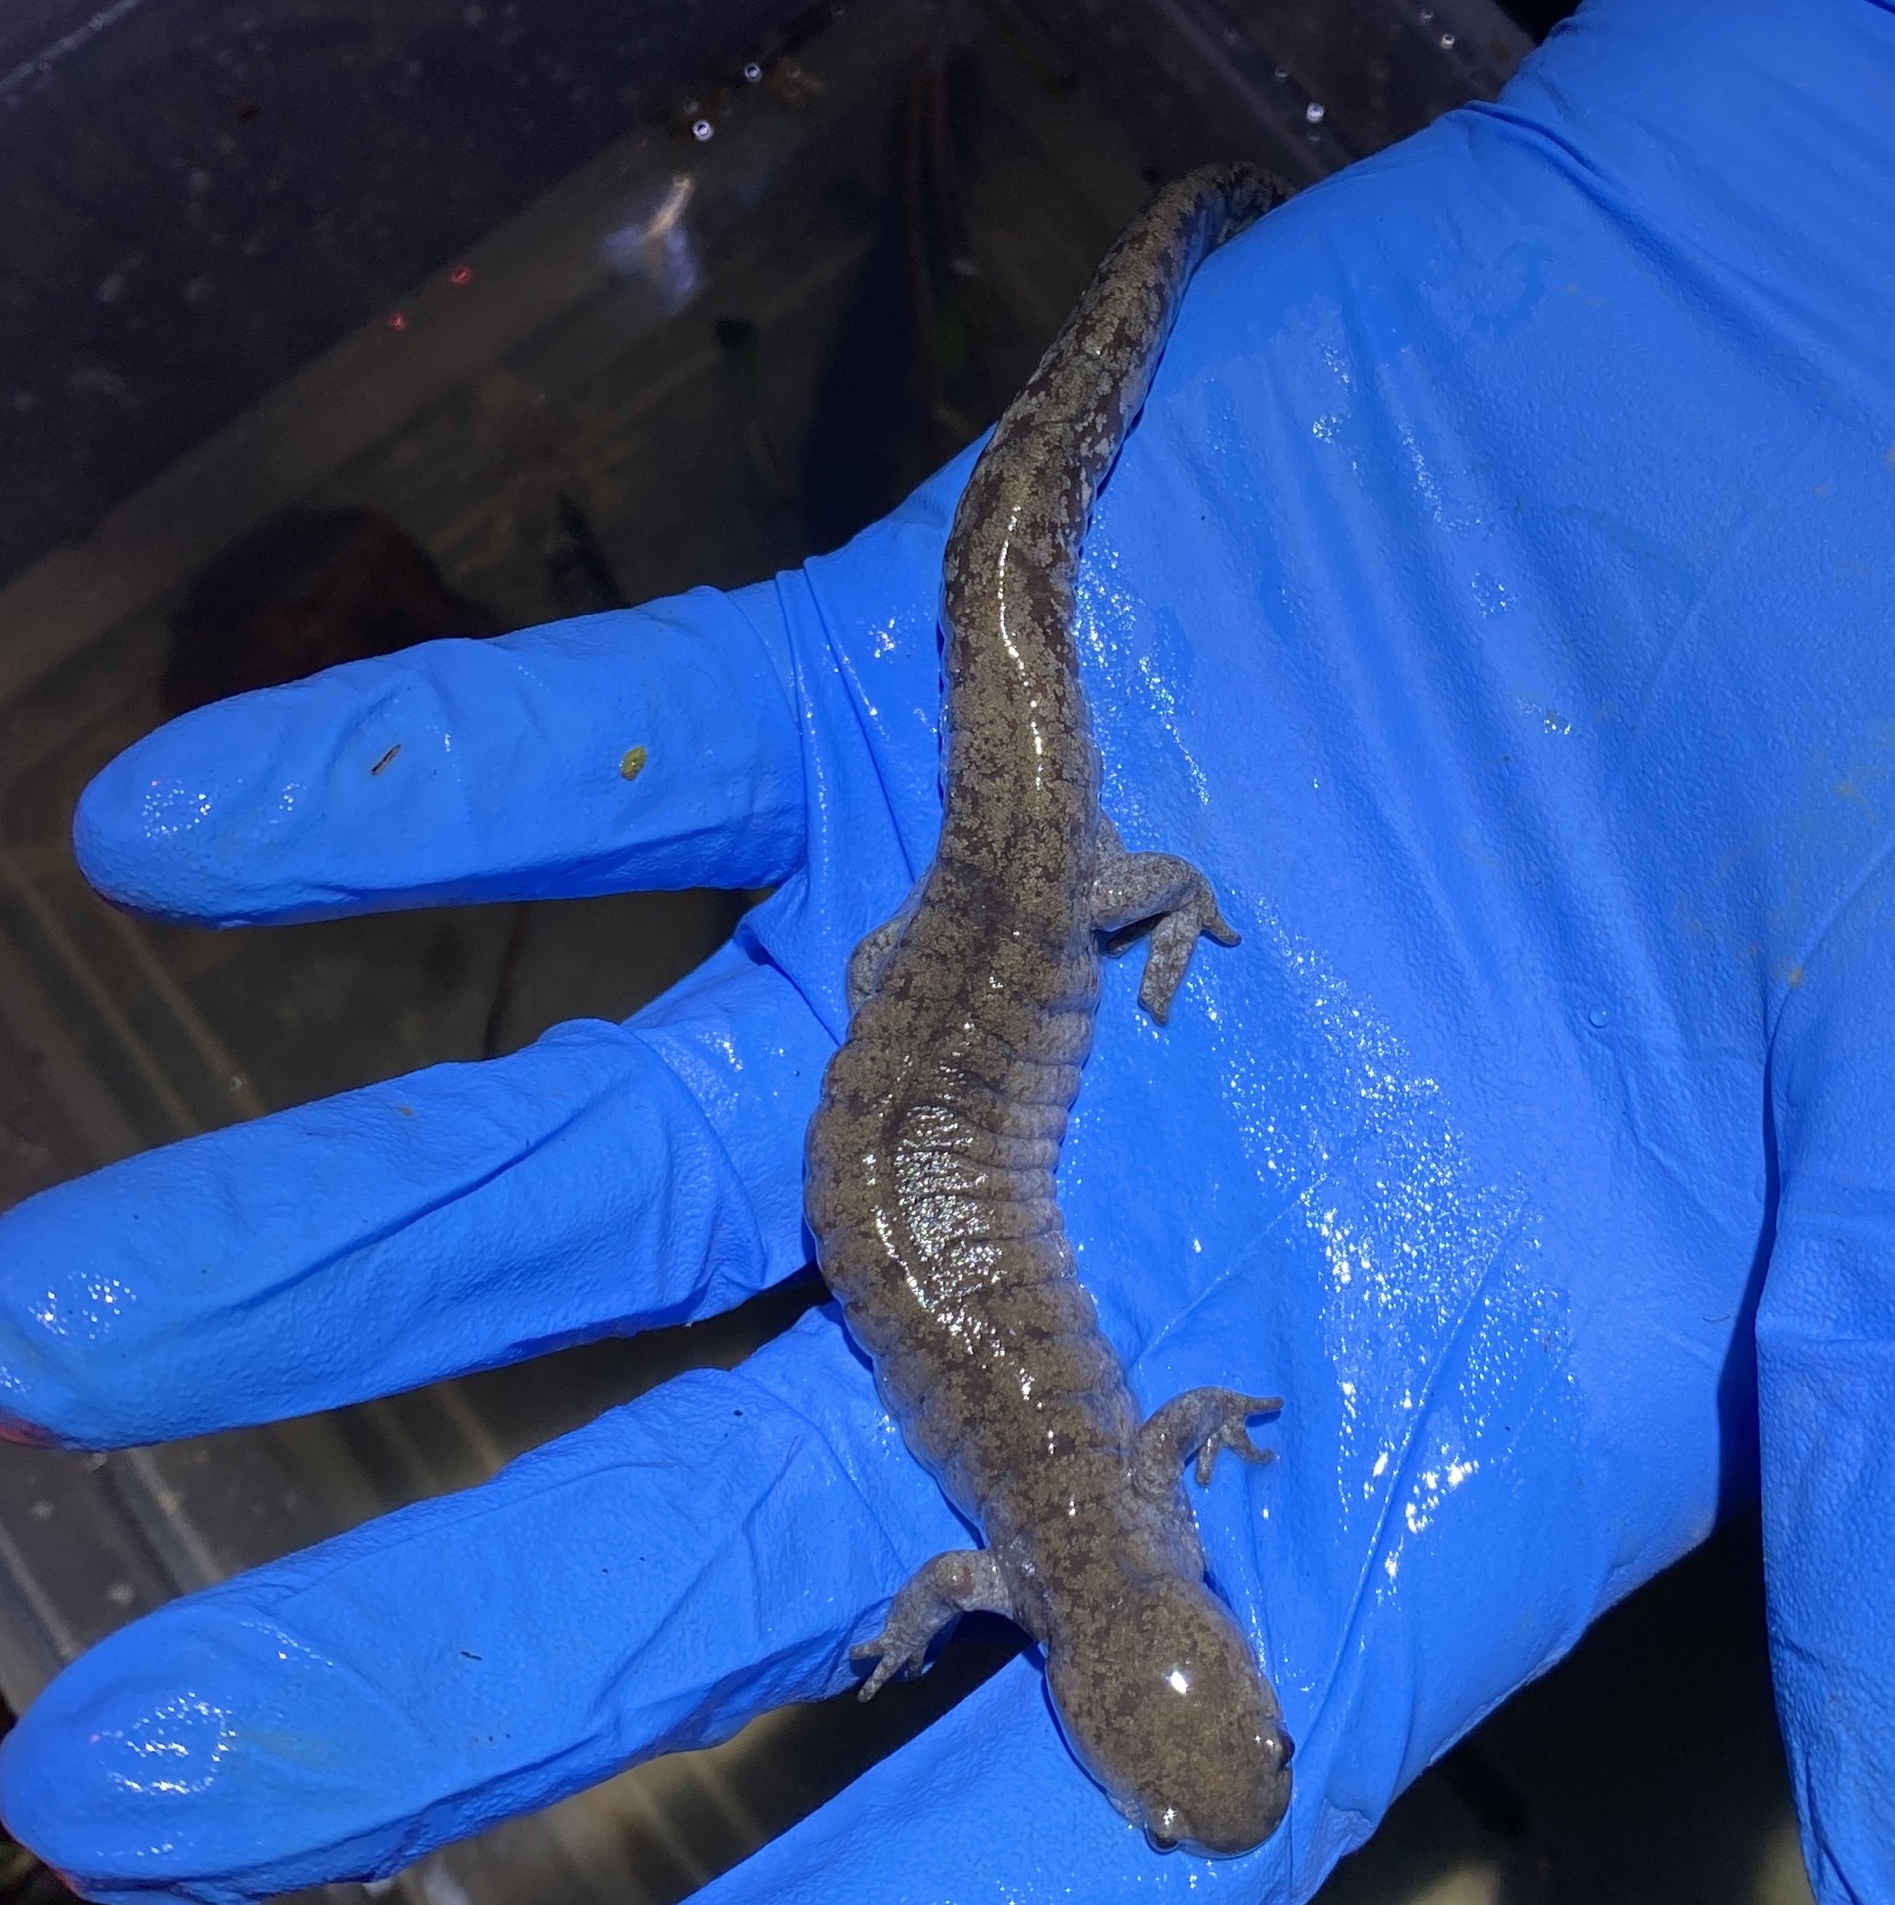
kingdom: Animalia
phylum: Chordata
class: Amphibia
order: Caudata
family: Ambystomatidae
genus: Ambystoma
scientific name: Ambystoma barbouri
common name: Streamside salamander
